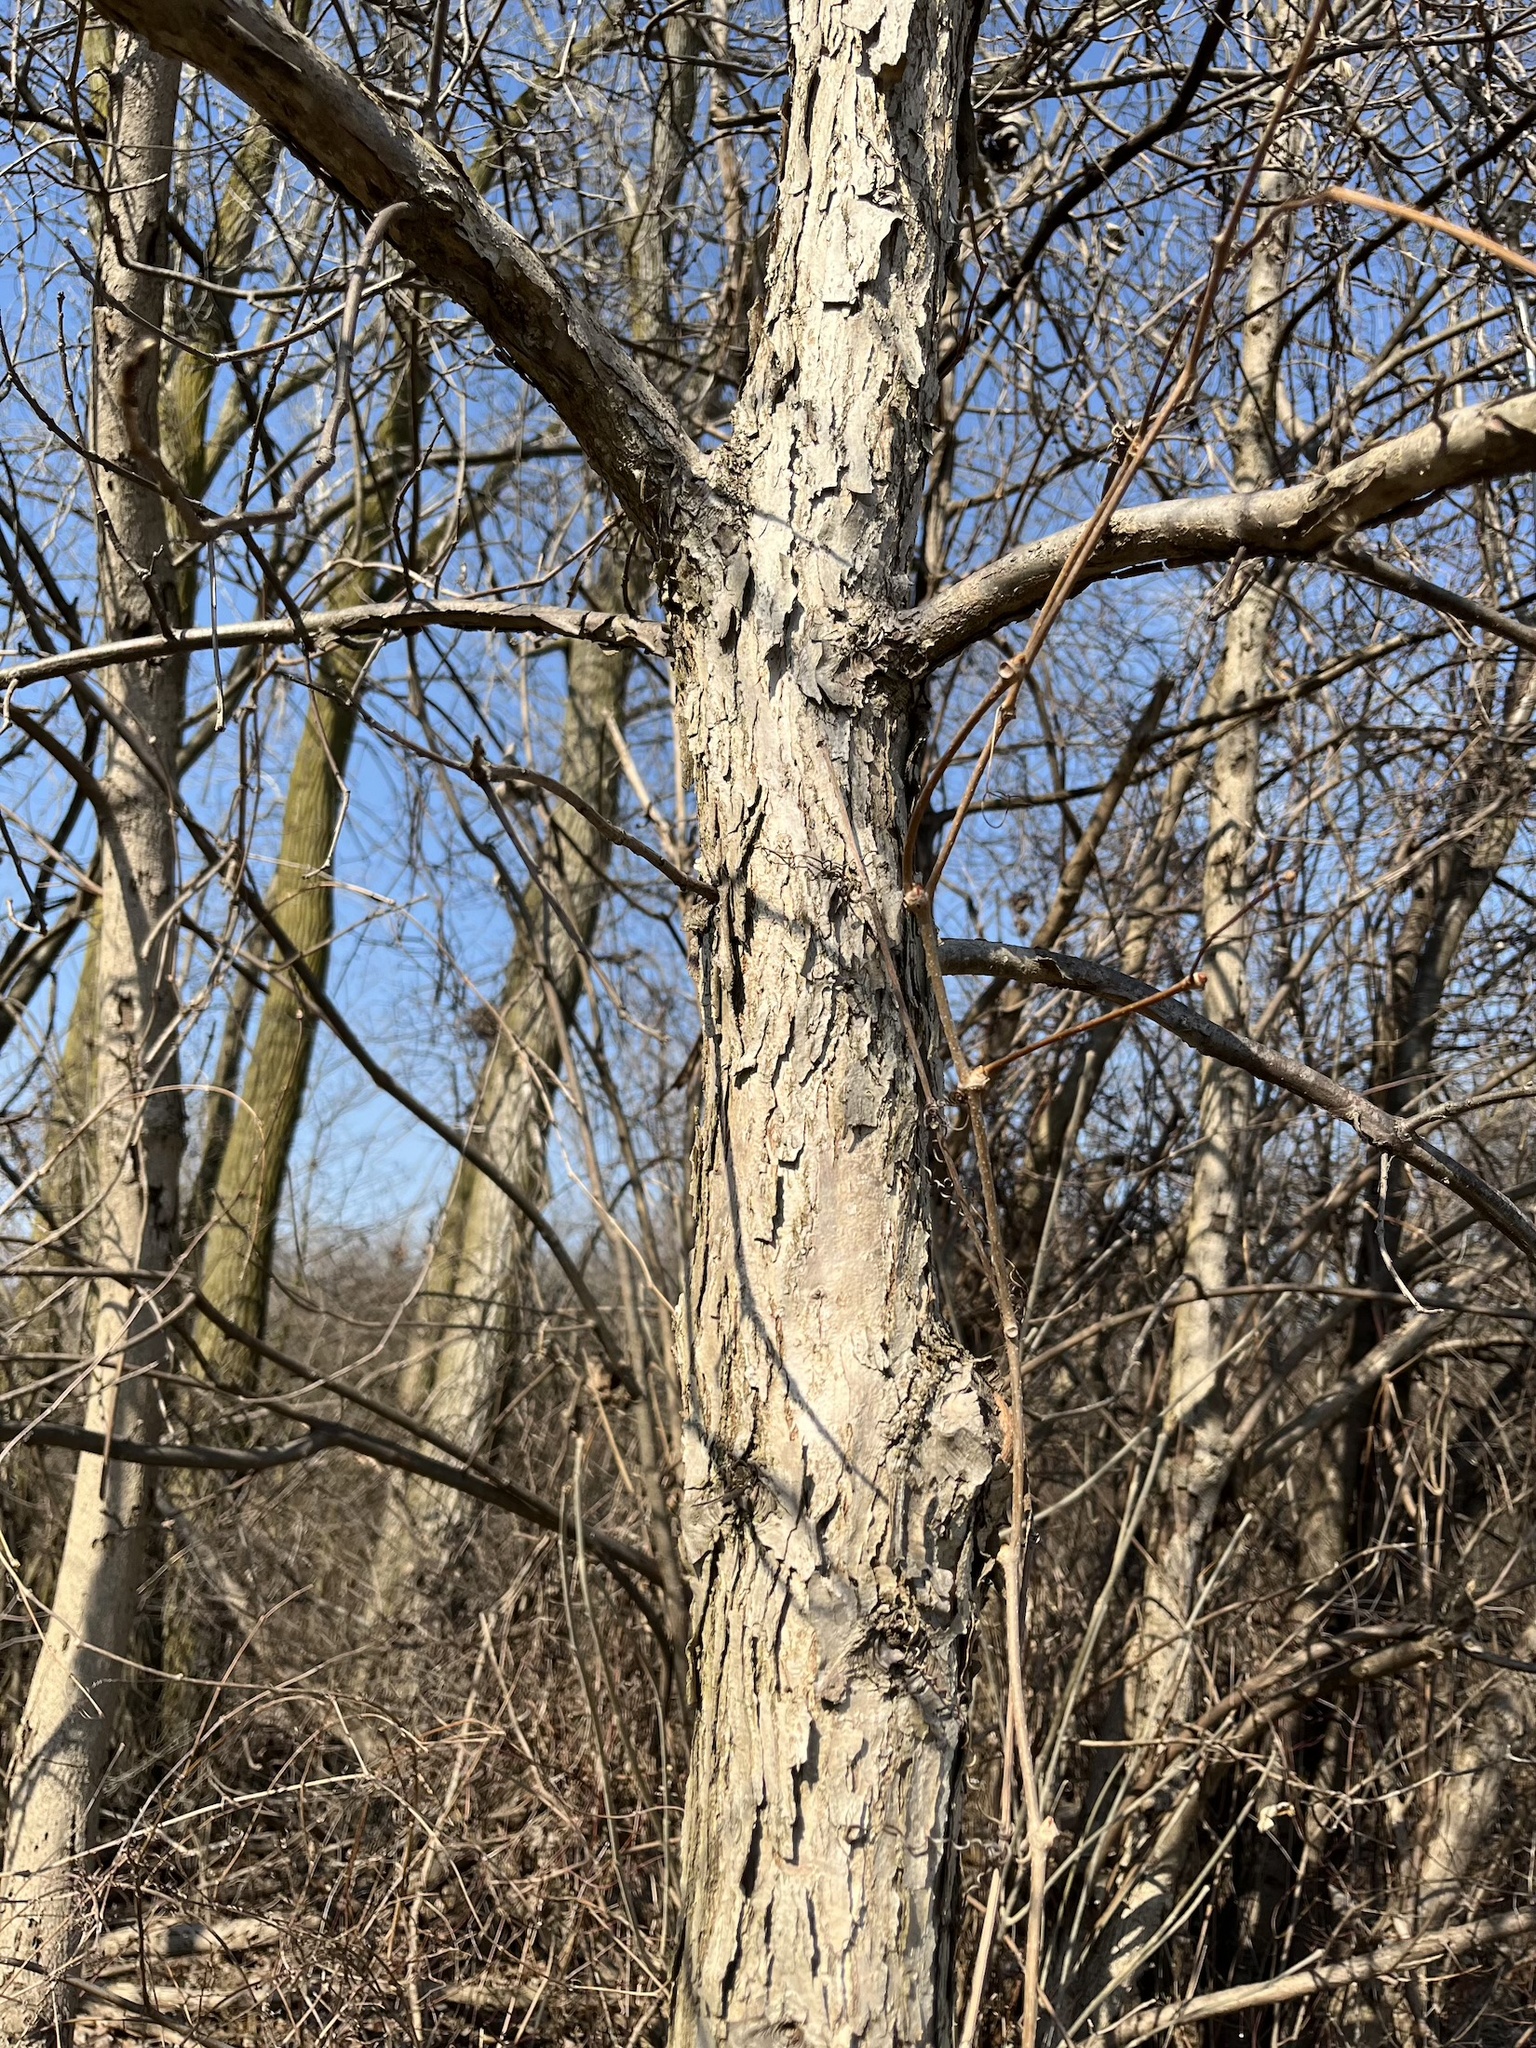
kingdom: Plantae
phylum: Tracheophyta
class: Magnoliopsida
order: Fagales
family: Fagaceae
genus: Quercus
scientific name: Quercus bicolor
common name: Swamp white oak
